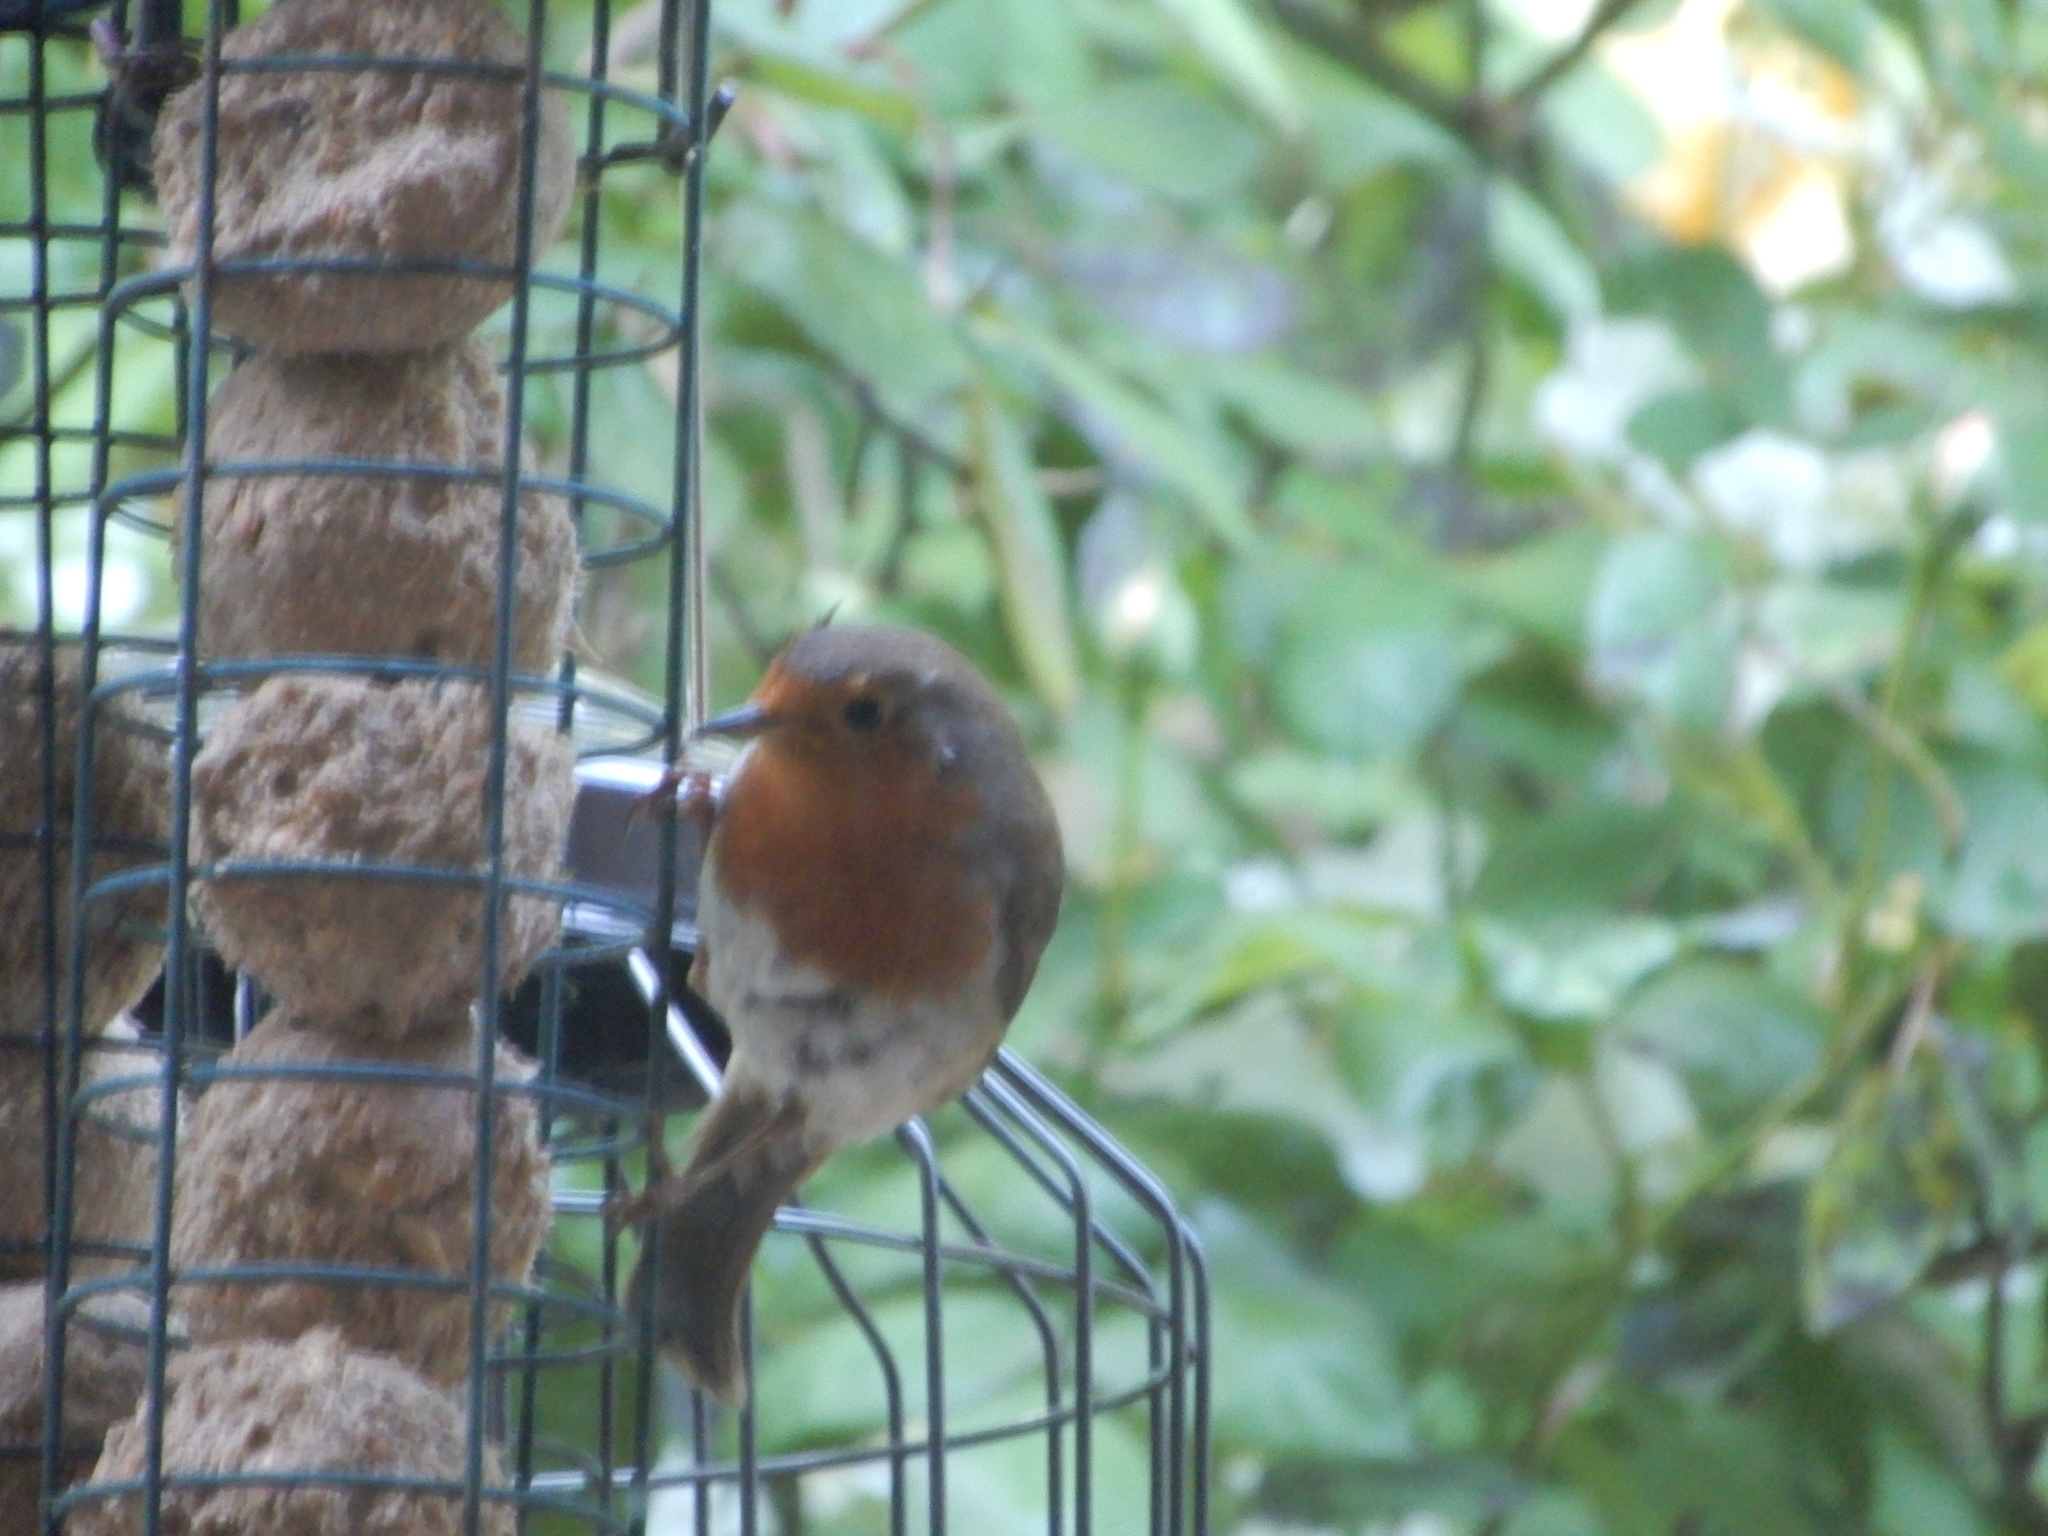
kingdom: Animalia
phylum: Chordata
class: Aves
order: Passeriformes
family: Muscicapidae
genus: Erithacus
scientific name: Erithacus rubecula
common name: European robin
